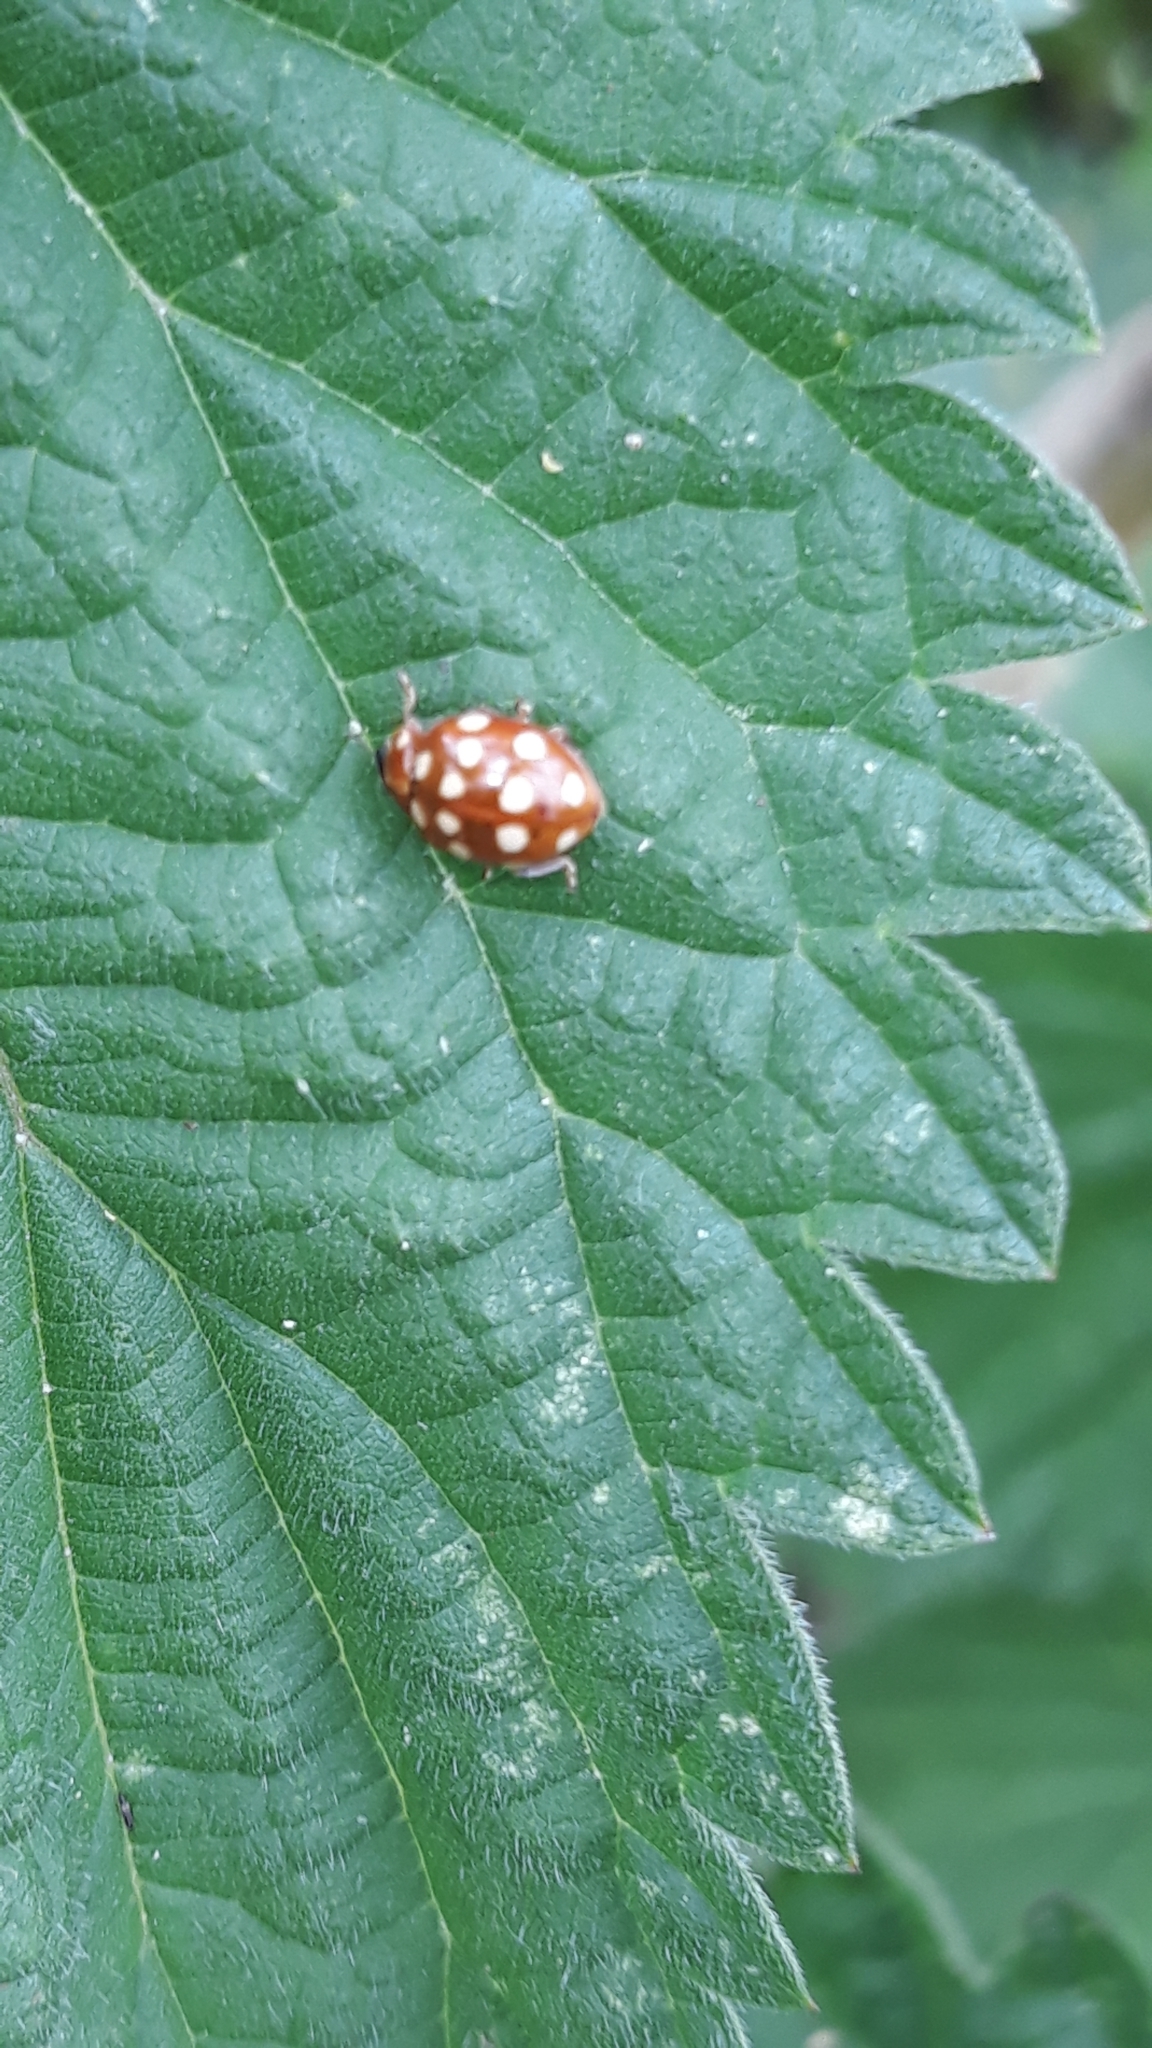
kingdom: Animalia
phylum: Arthropoda
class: Insecta
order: Coleoptera
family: Coccinellidae
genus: Calvia
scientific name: Calvia quatuordecimguttata
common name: Cream-spot ladybird
